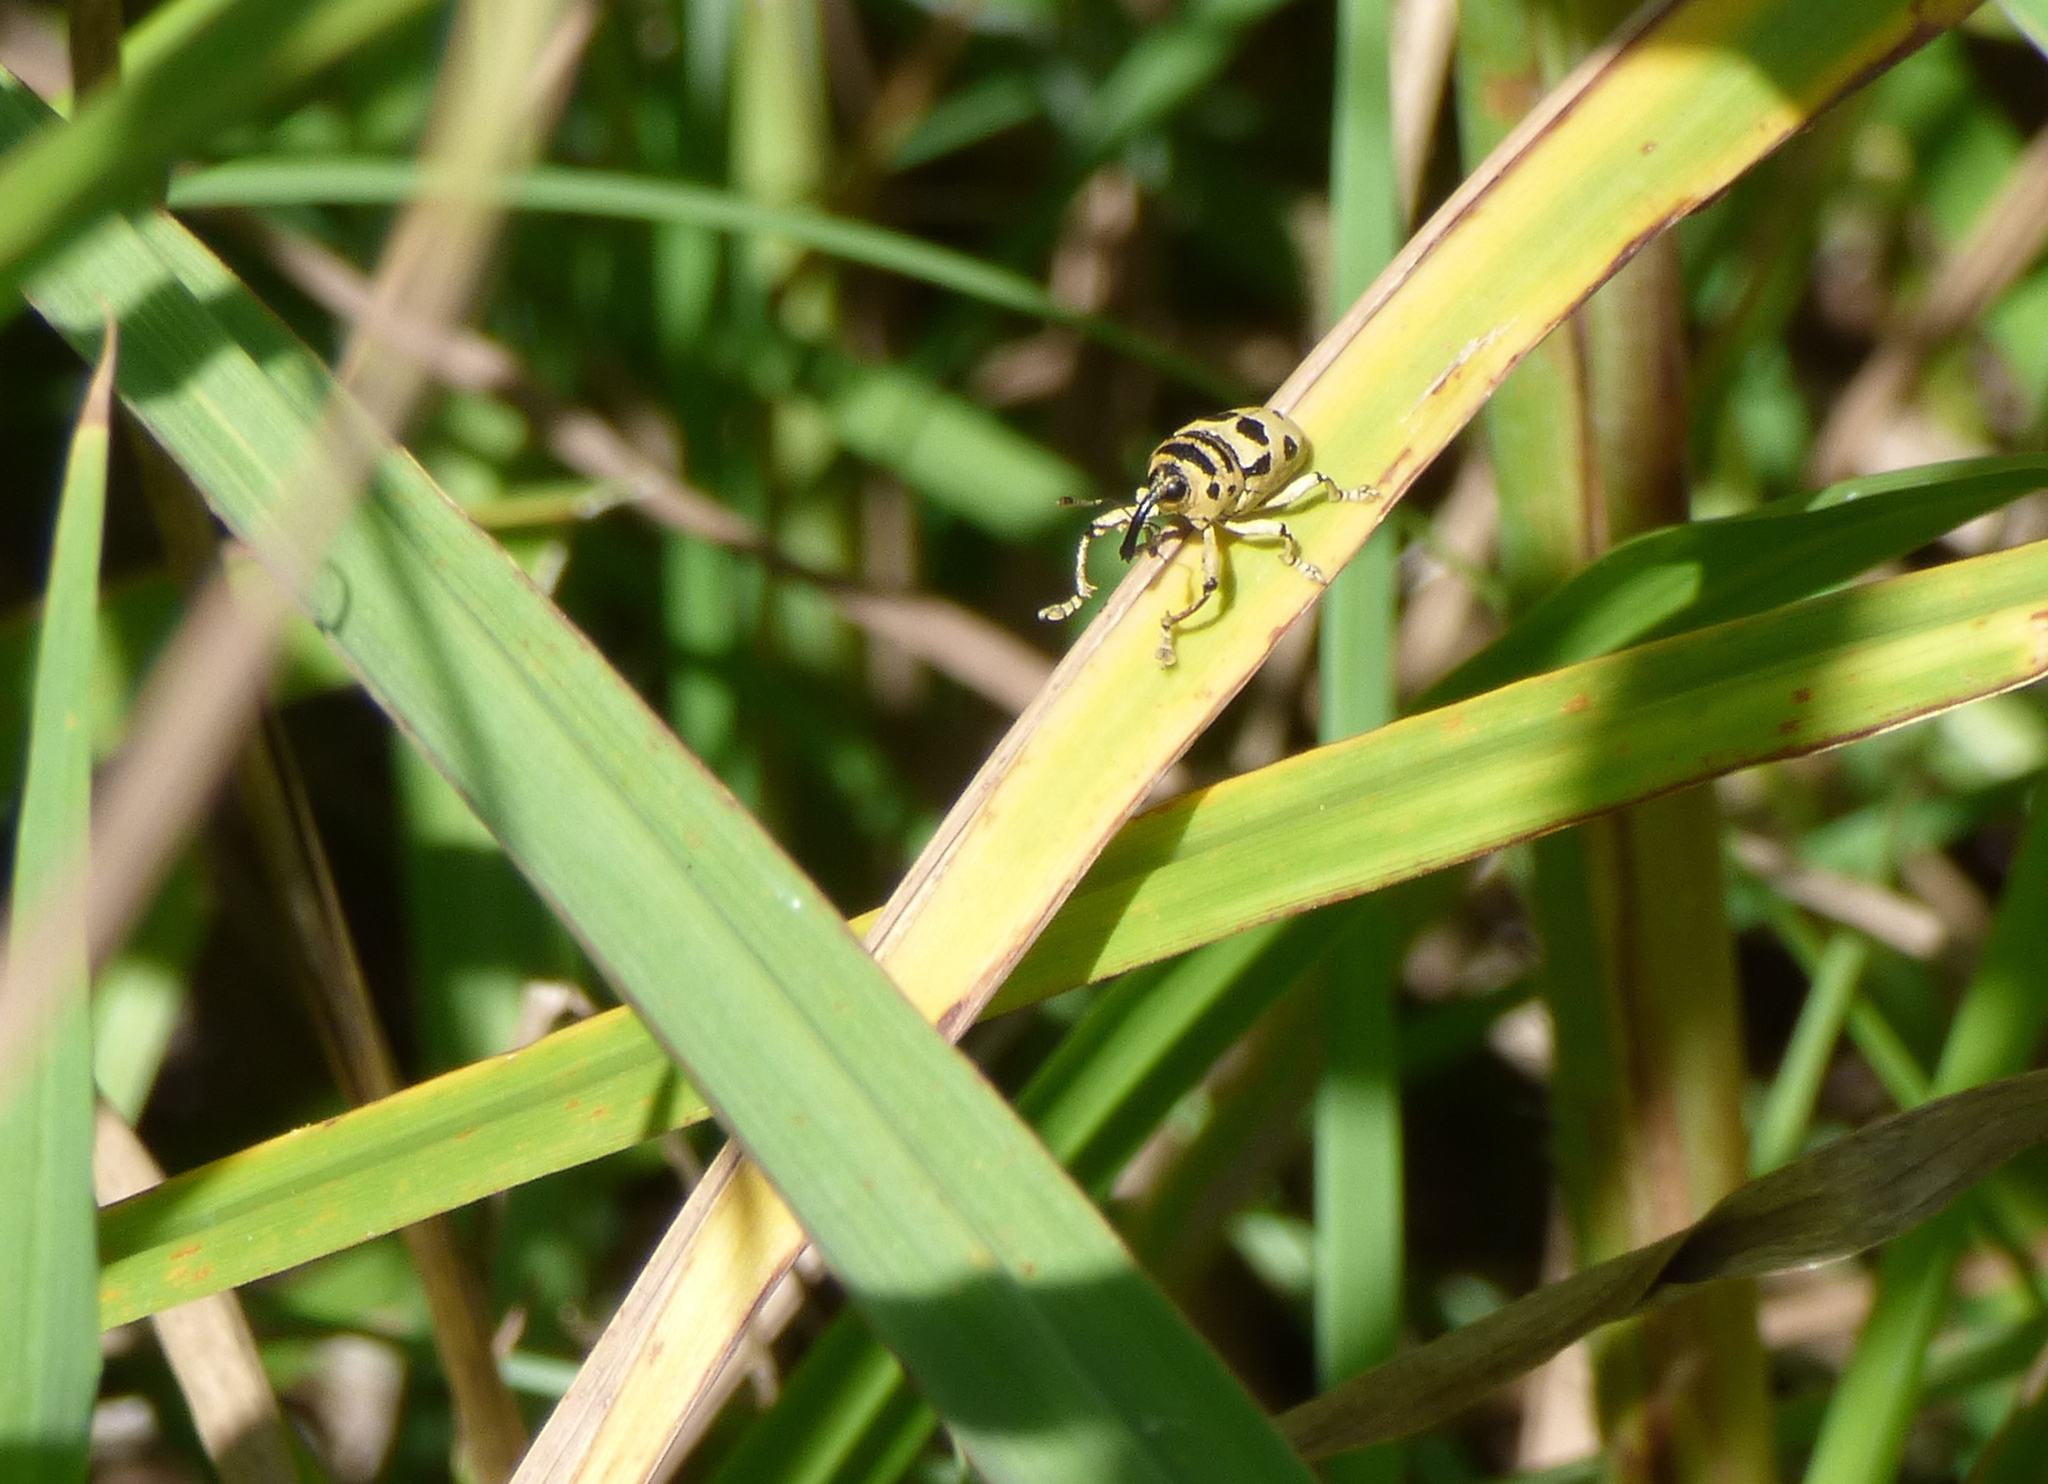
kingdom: Animalia
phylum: Arthropoda
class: Insecta
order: Coleoptera
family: Curculionidae
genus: Cholus
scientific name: Cholus boisduvali
